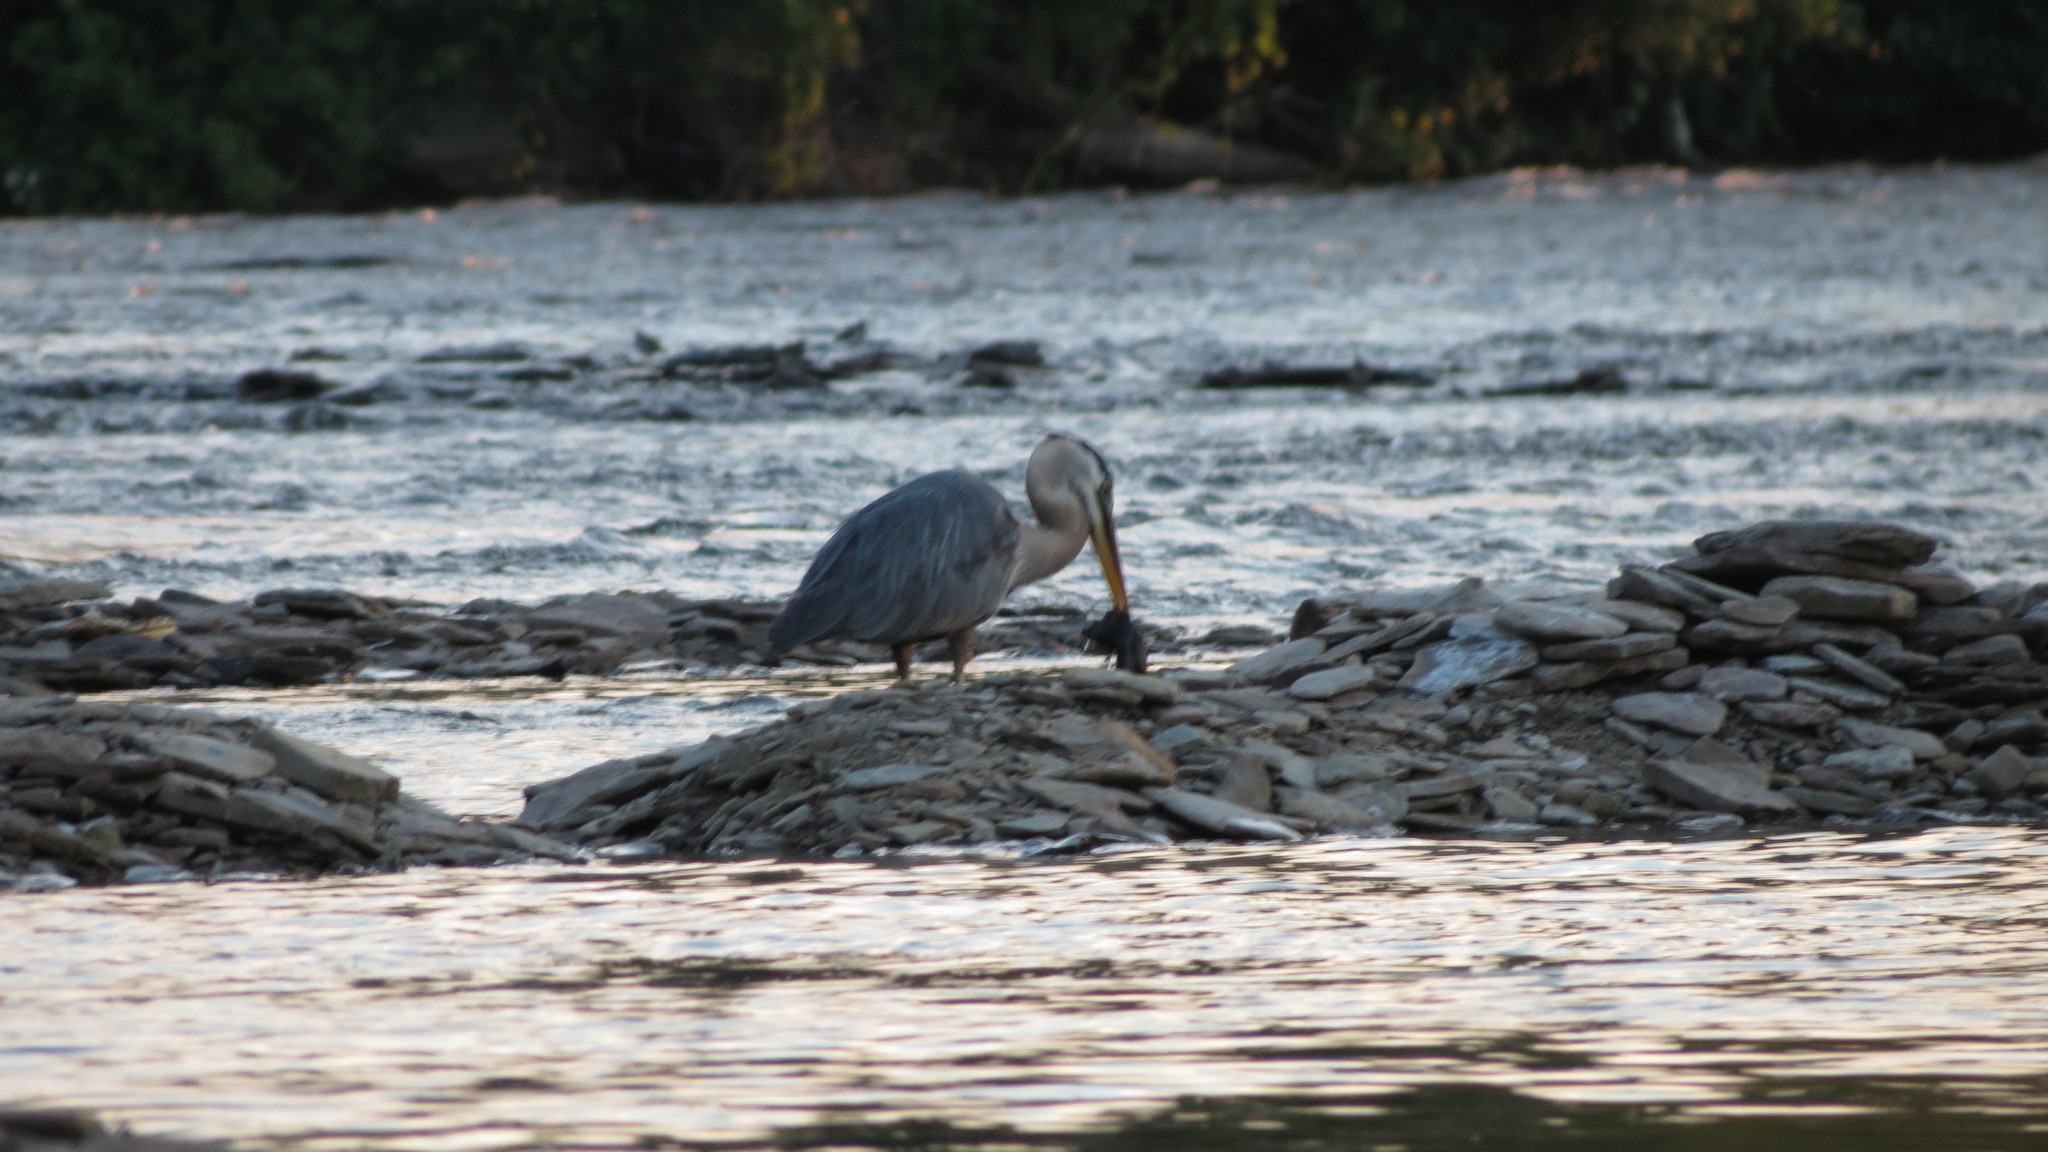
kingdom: Animalia
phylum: Chordata
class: Aves
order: Pelecaniformes
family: Ardeidae
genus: Ardea
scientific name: Ardea herodias
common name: Great blue heron
